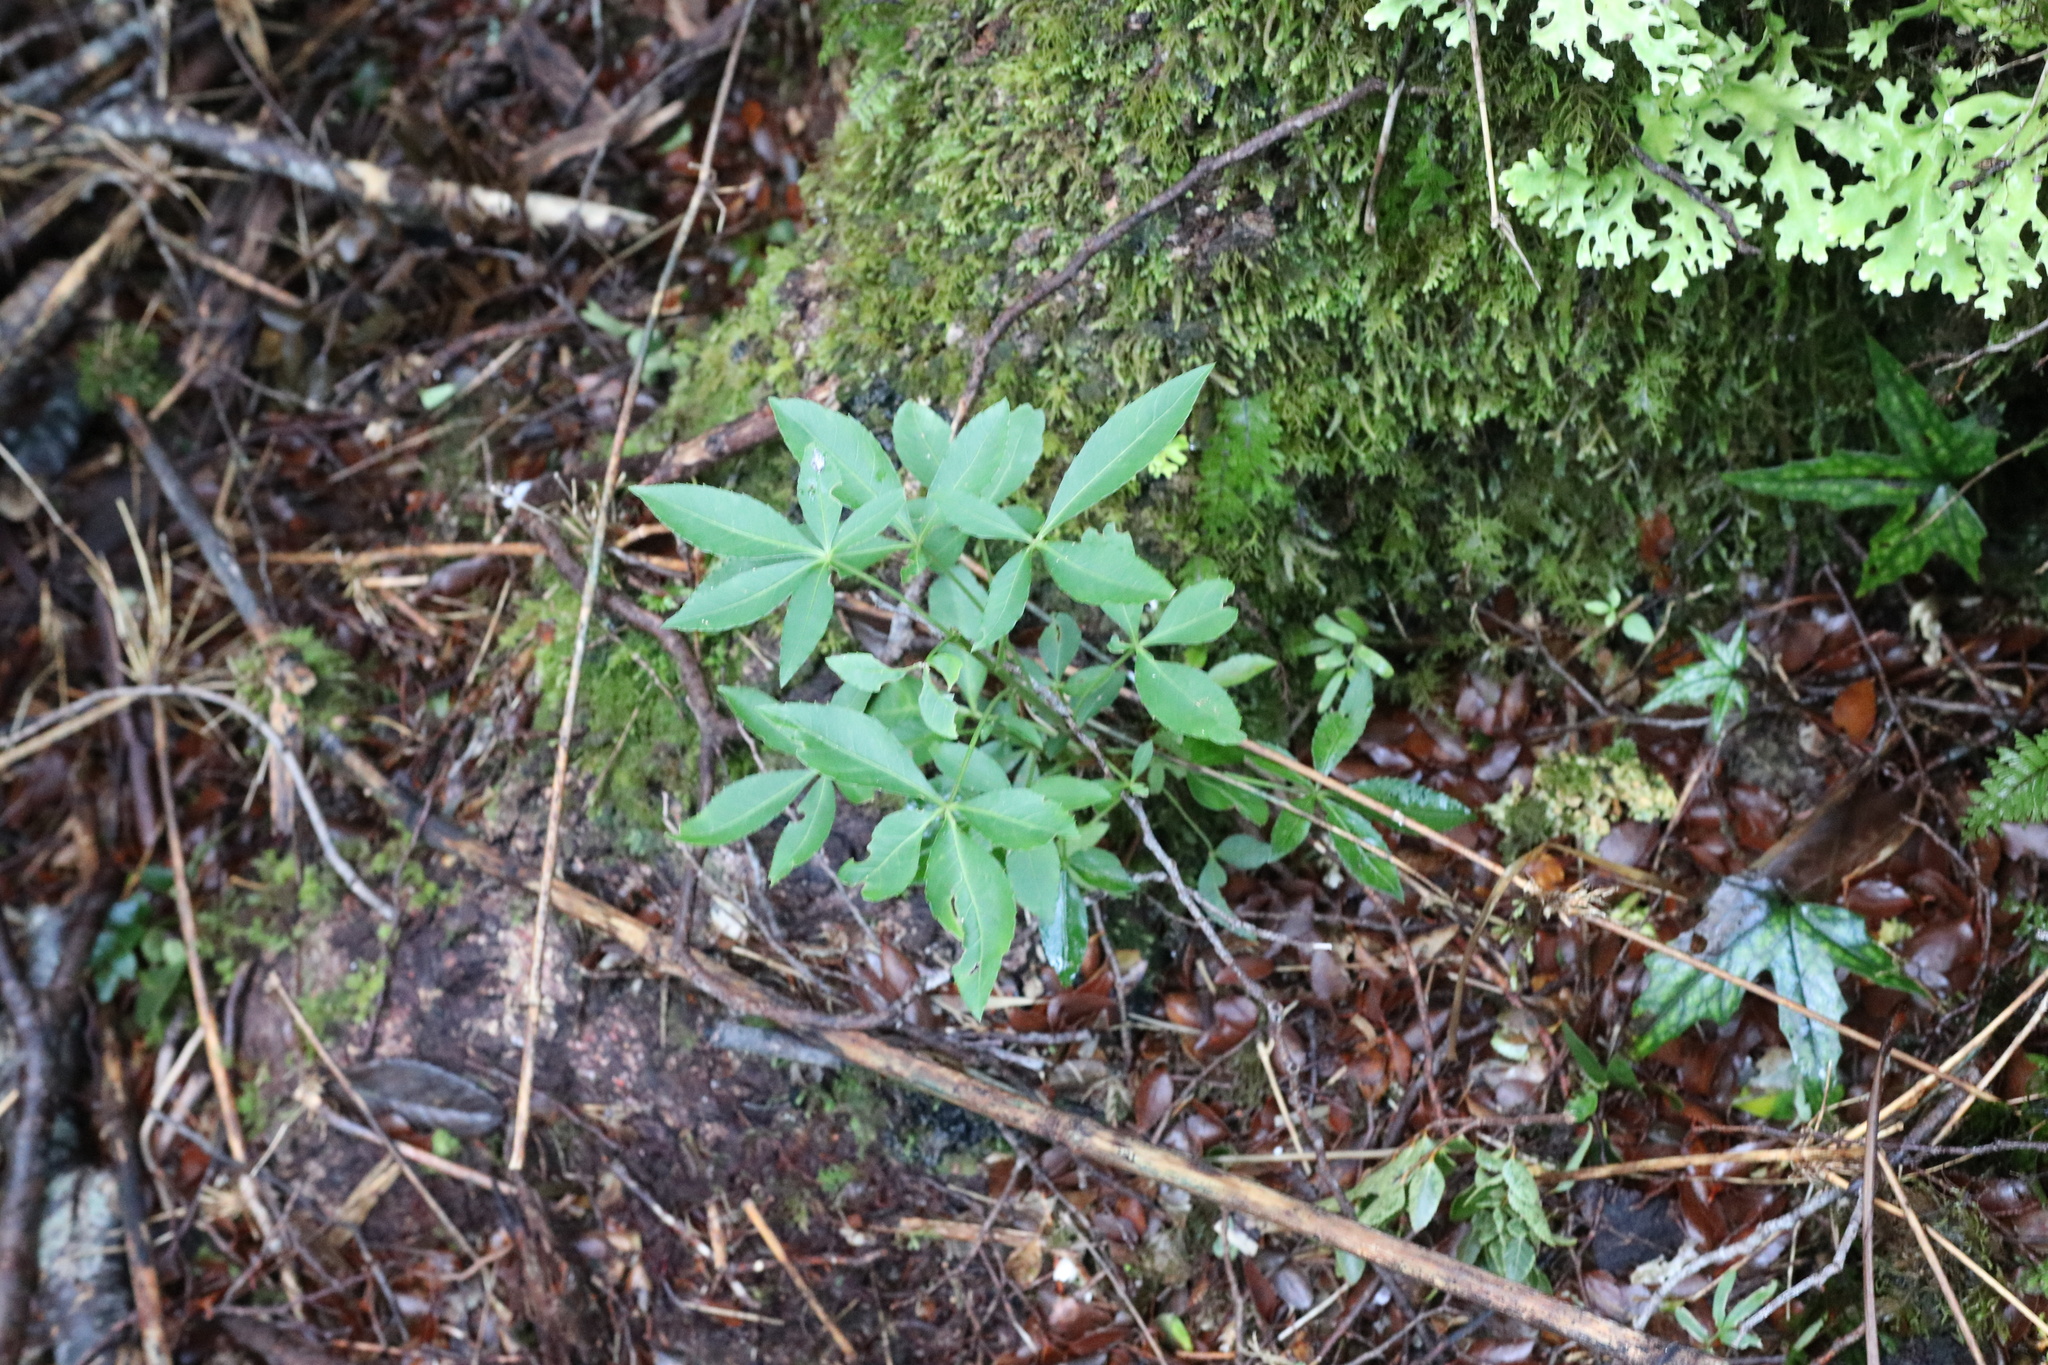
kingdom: Plantae
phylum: Tracheophyta
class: Magnoliopsida
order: Apiales
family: Araliaceae
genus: Raukaua
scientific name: Raukaua laetevirens
